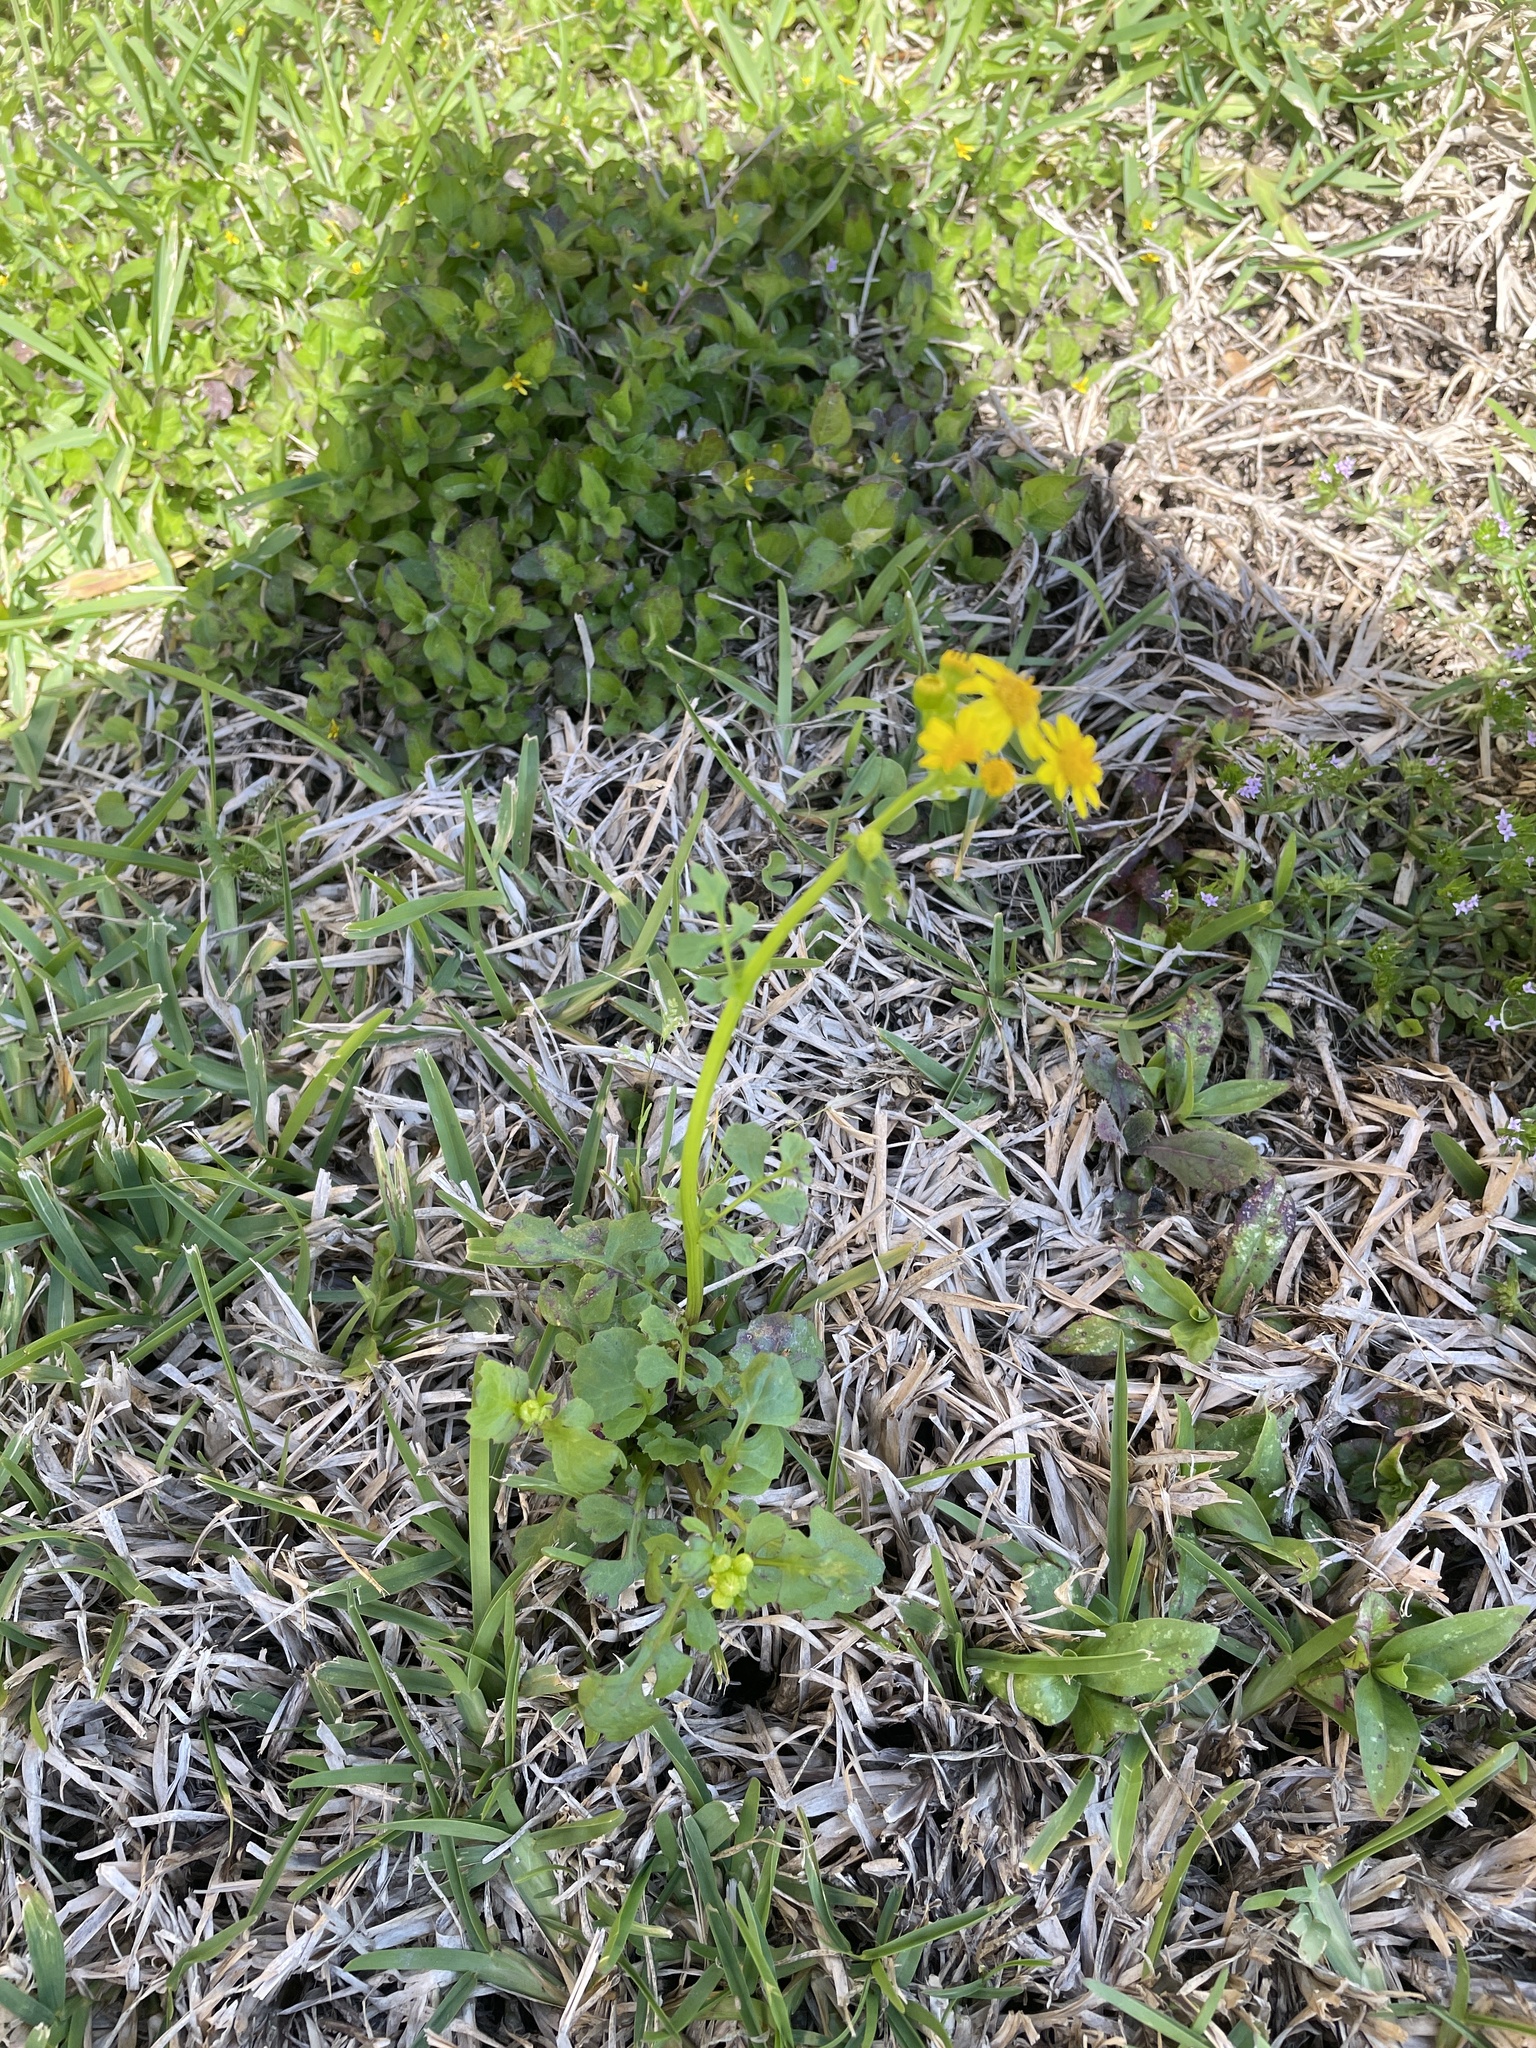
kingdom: Plantae
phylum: Tracheophyta
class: Magnoliopsida
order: Asterales
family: Asteraceae
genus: Packera
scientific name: Packera glabella
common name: Butterweed
